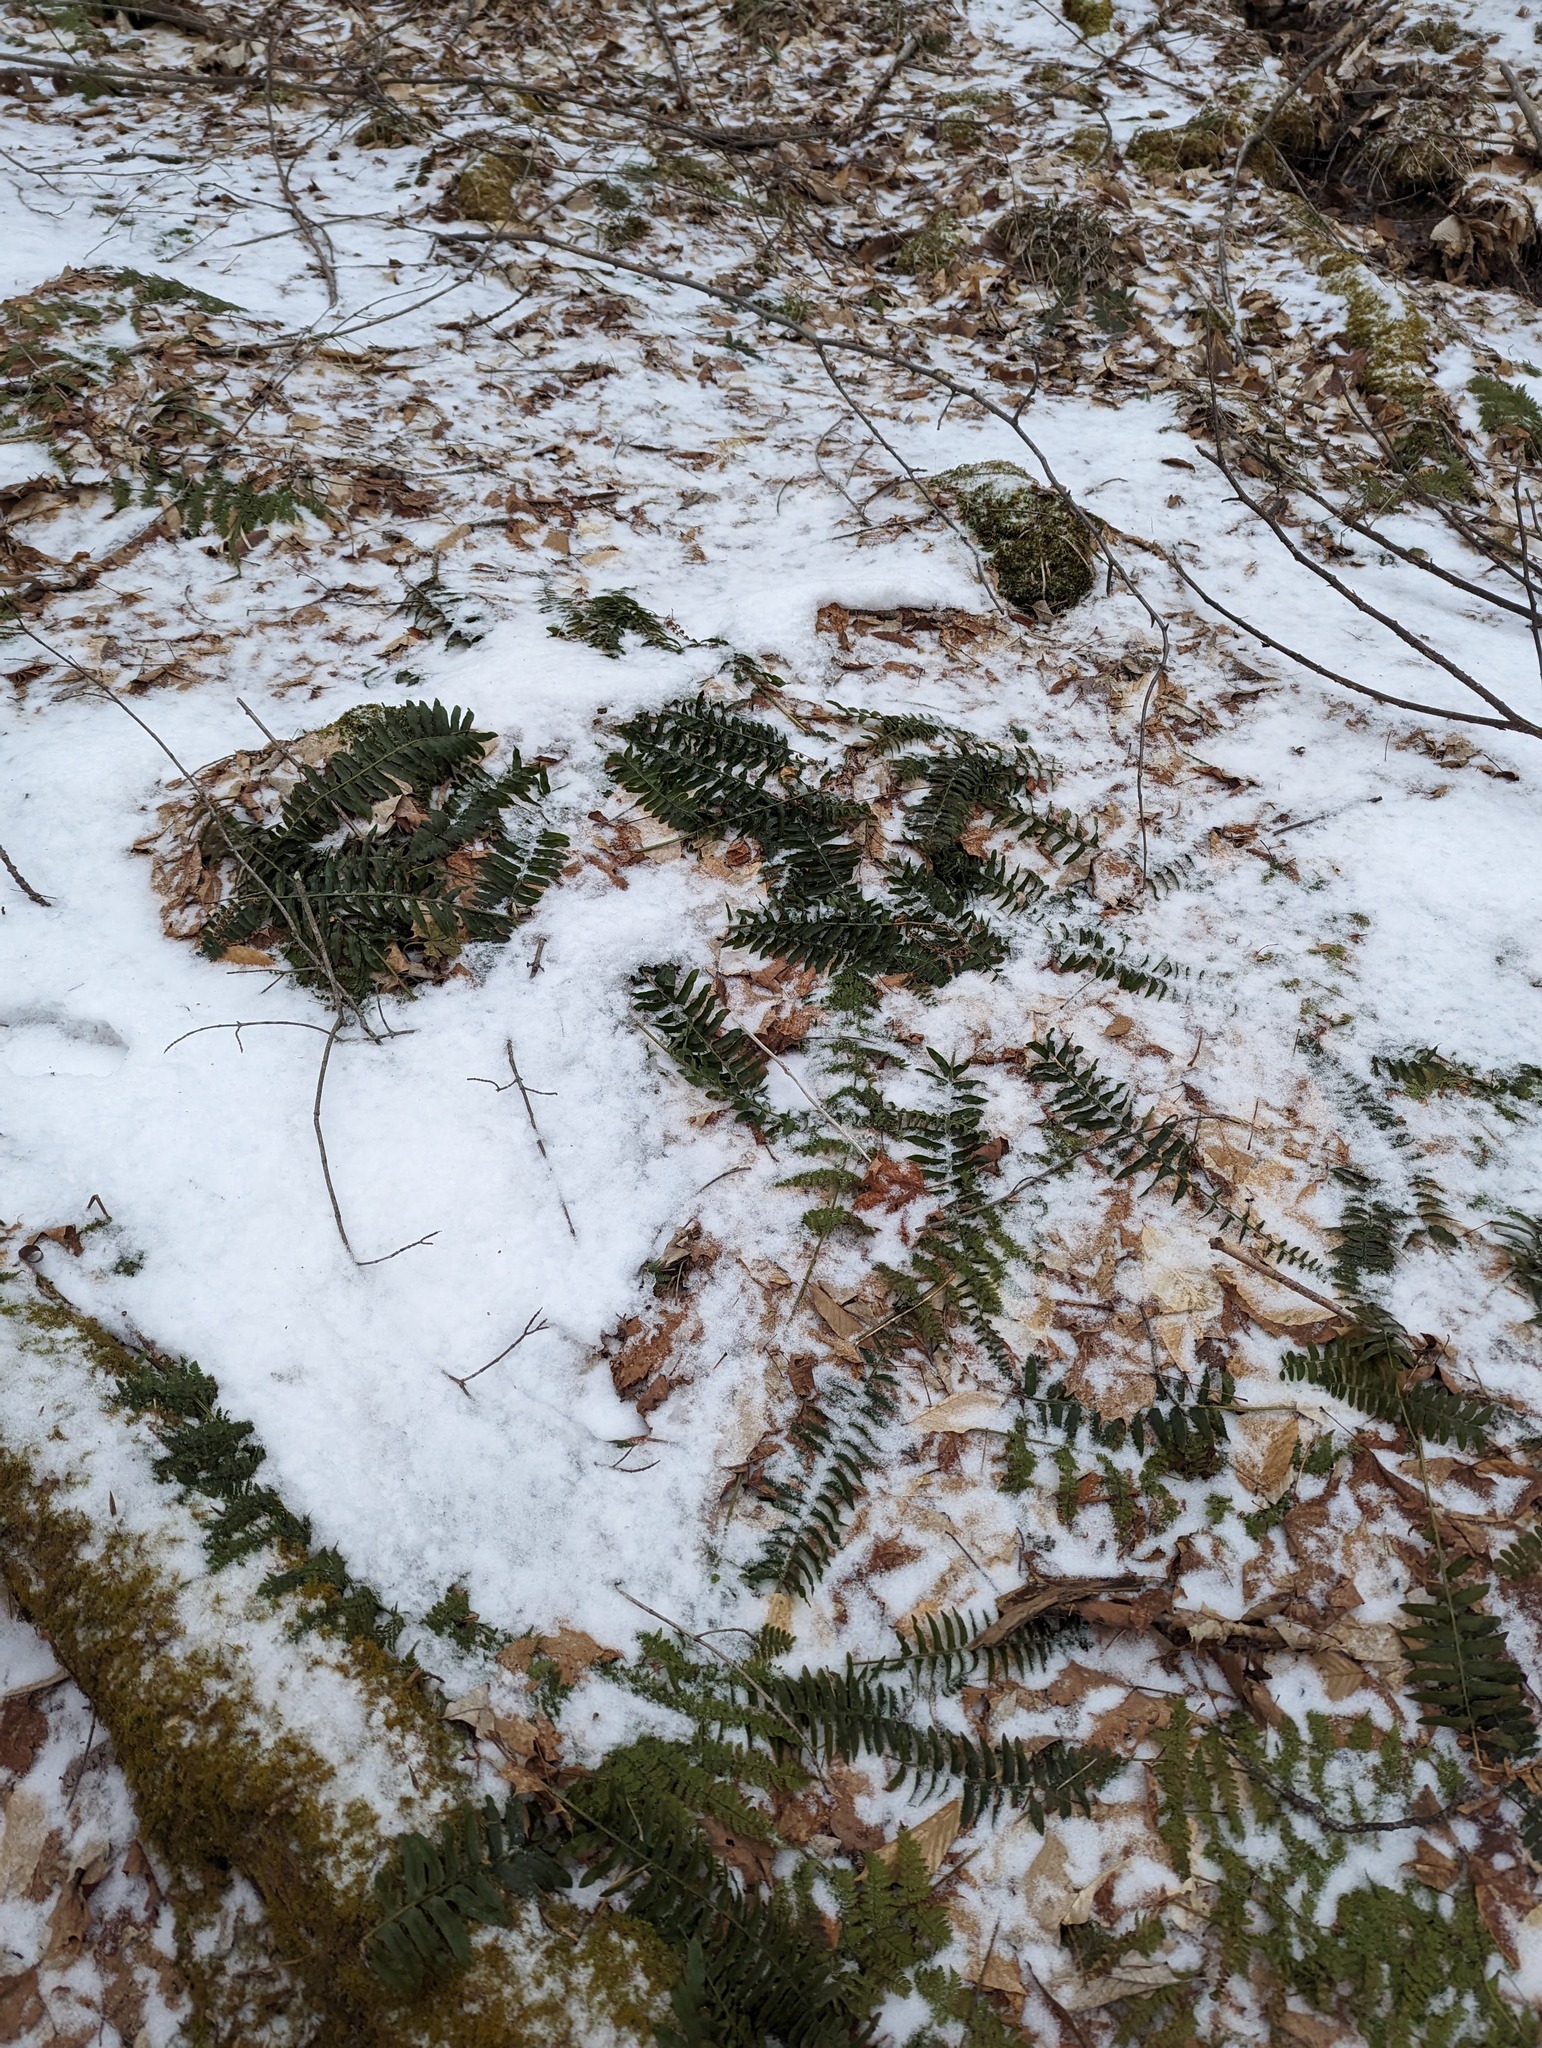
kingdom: Plantae
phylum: Tracheophyta
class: Polypodiopsida
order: Polypodiales
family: Dryopteridaceae
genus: Polystichum
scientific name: Polystichum acrostichoides
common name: Christmas fern
